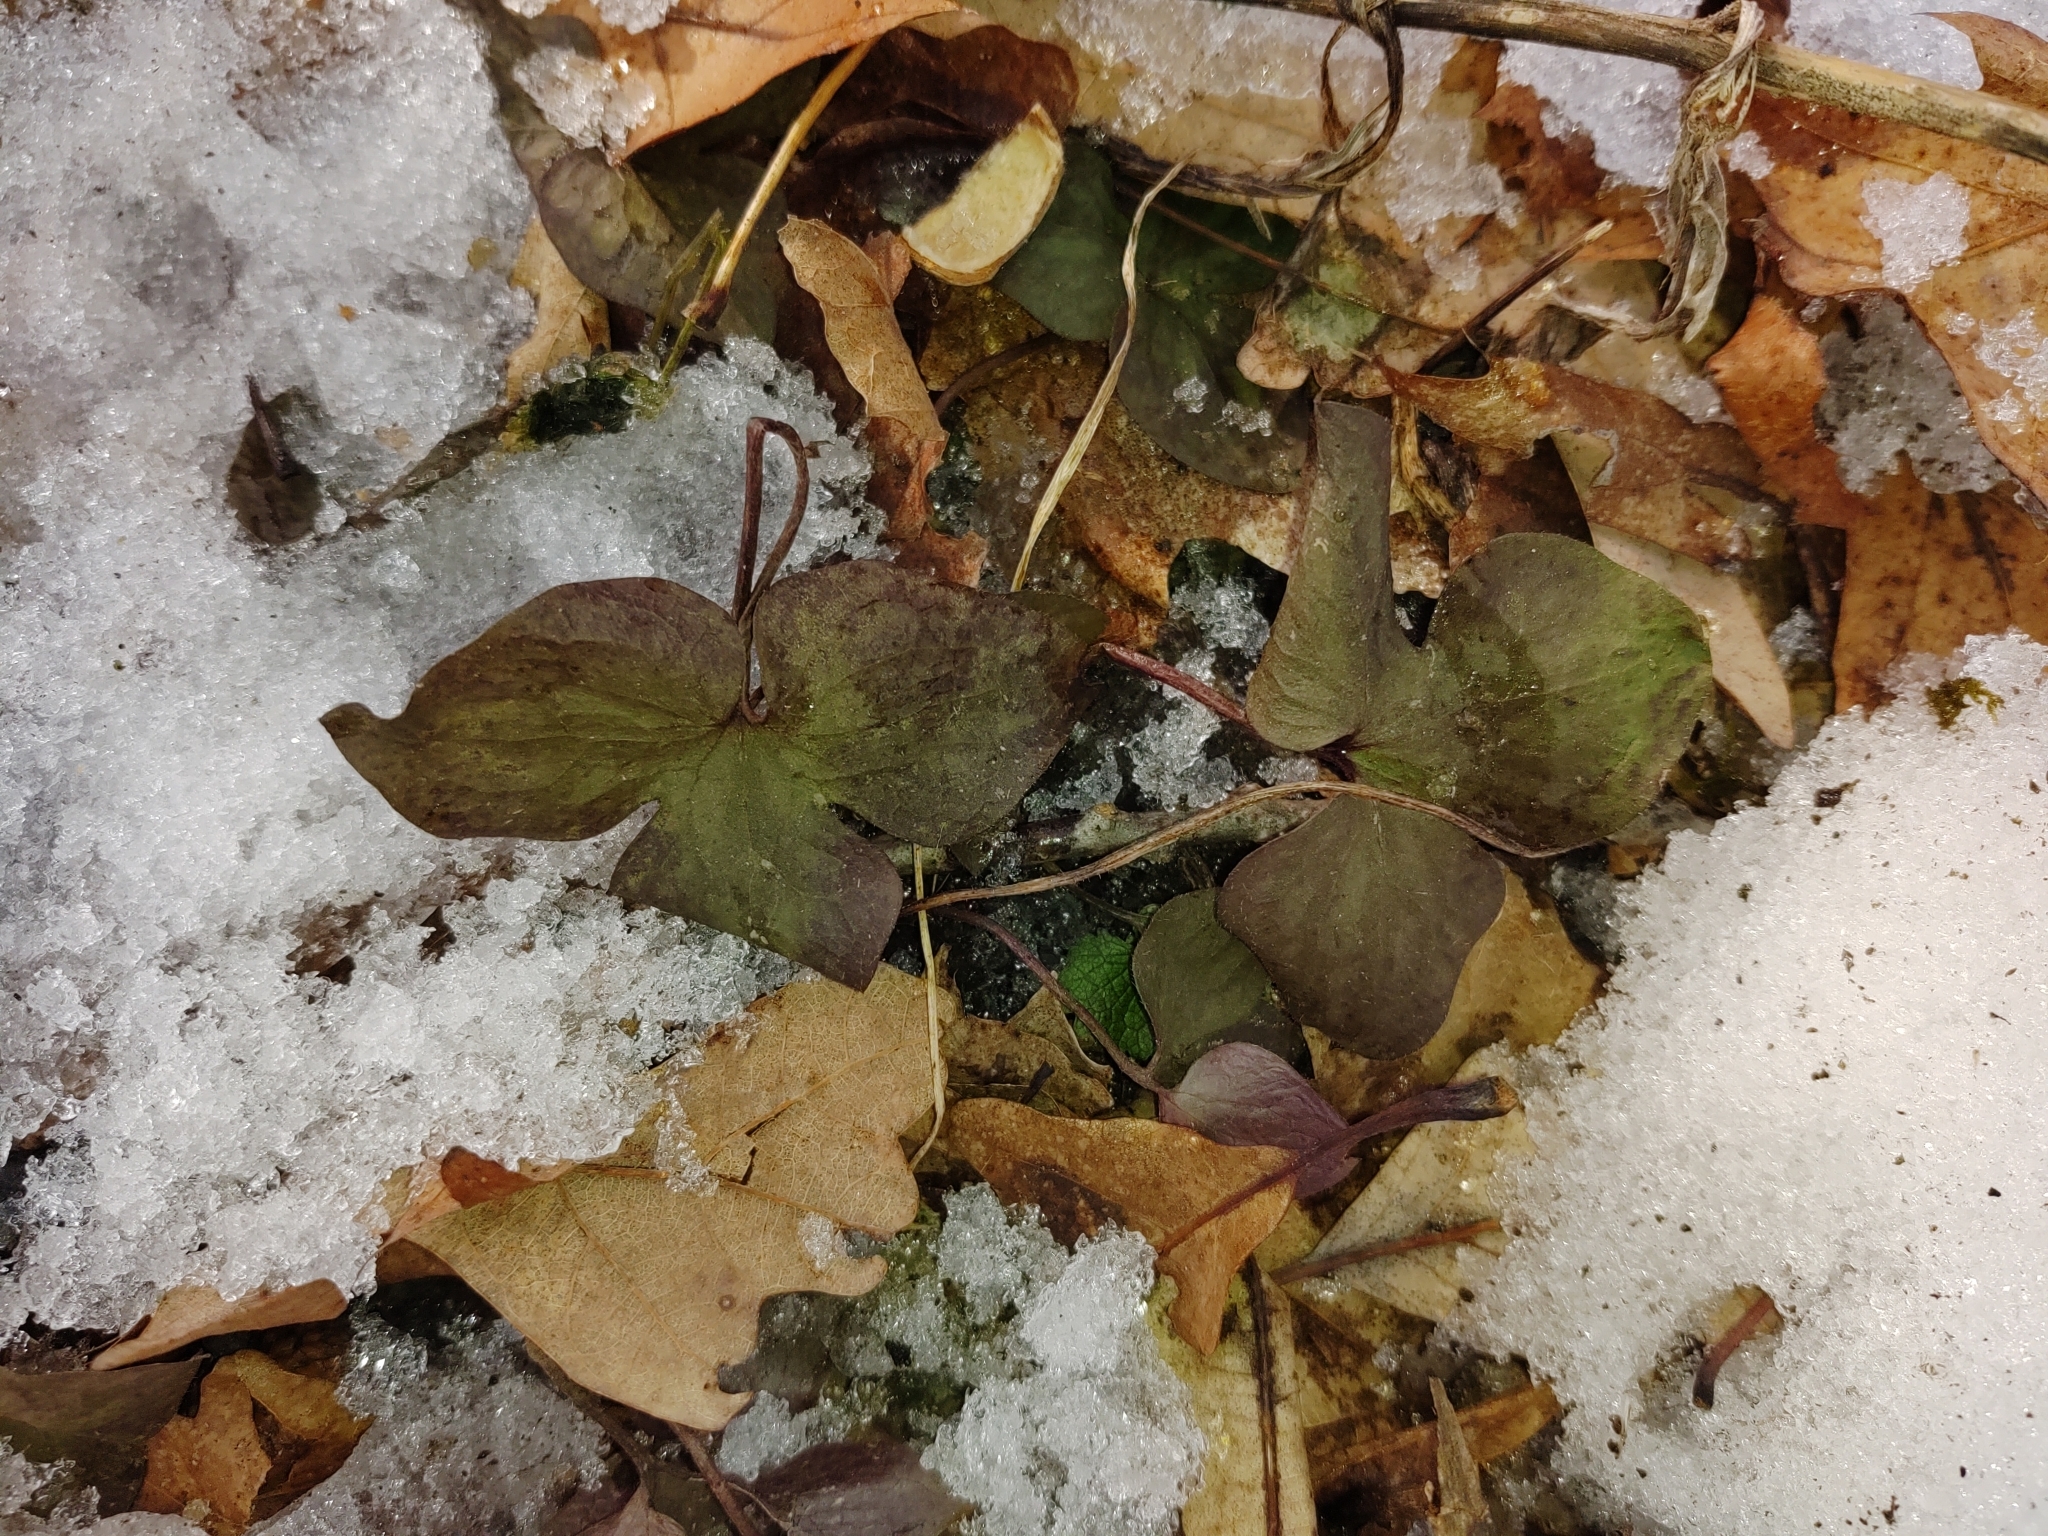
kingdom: Plantae
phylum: Tracheophyta
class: Magnoliopsida
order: Ranunculales
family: Ranunculaceae
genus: Hepatica
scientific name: Hepatica acutiloba
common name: Sharp-lobed hepatica
